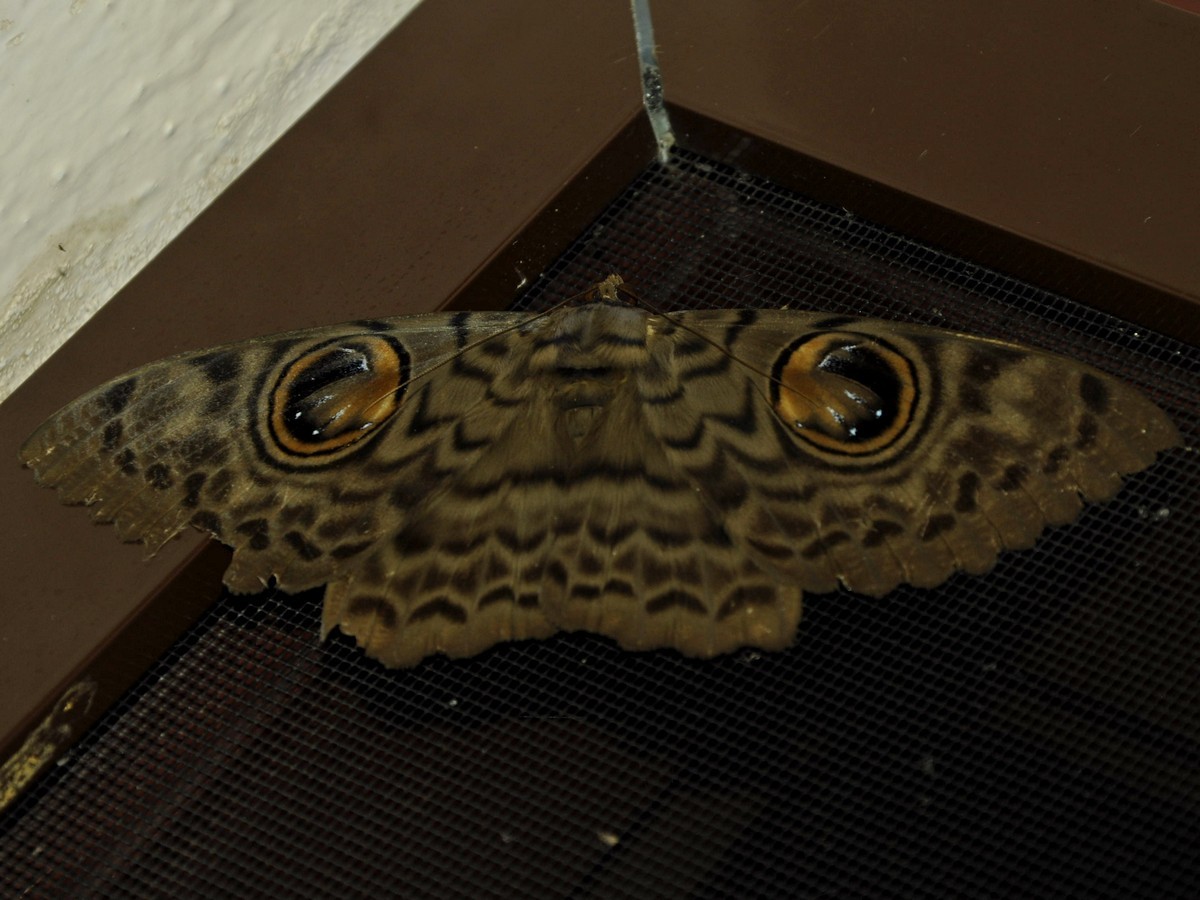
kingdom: Animalia
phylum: Arthropoda
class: Insecta
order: Lepidoptera
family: Erebidae
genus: Erebus
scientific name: Erebus macrops
